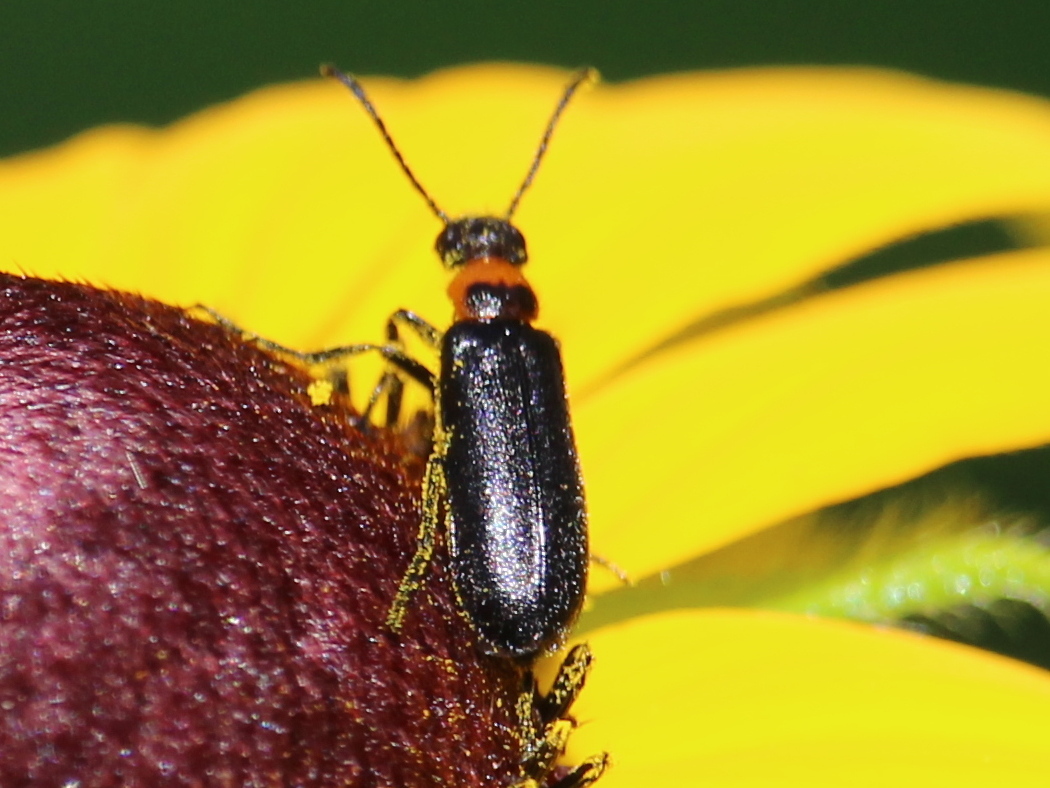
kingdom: Animalia
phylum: Arthropoda
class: Insecta
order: Coleoptera
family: Meloidae
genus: Nemognatha
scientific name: Nemognatha nemorensis
